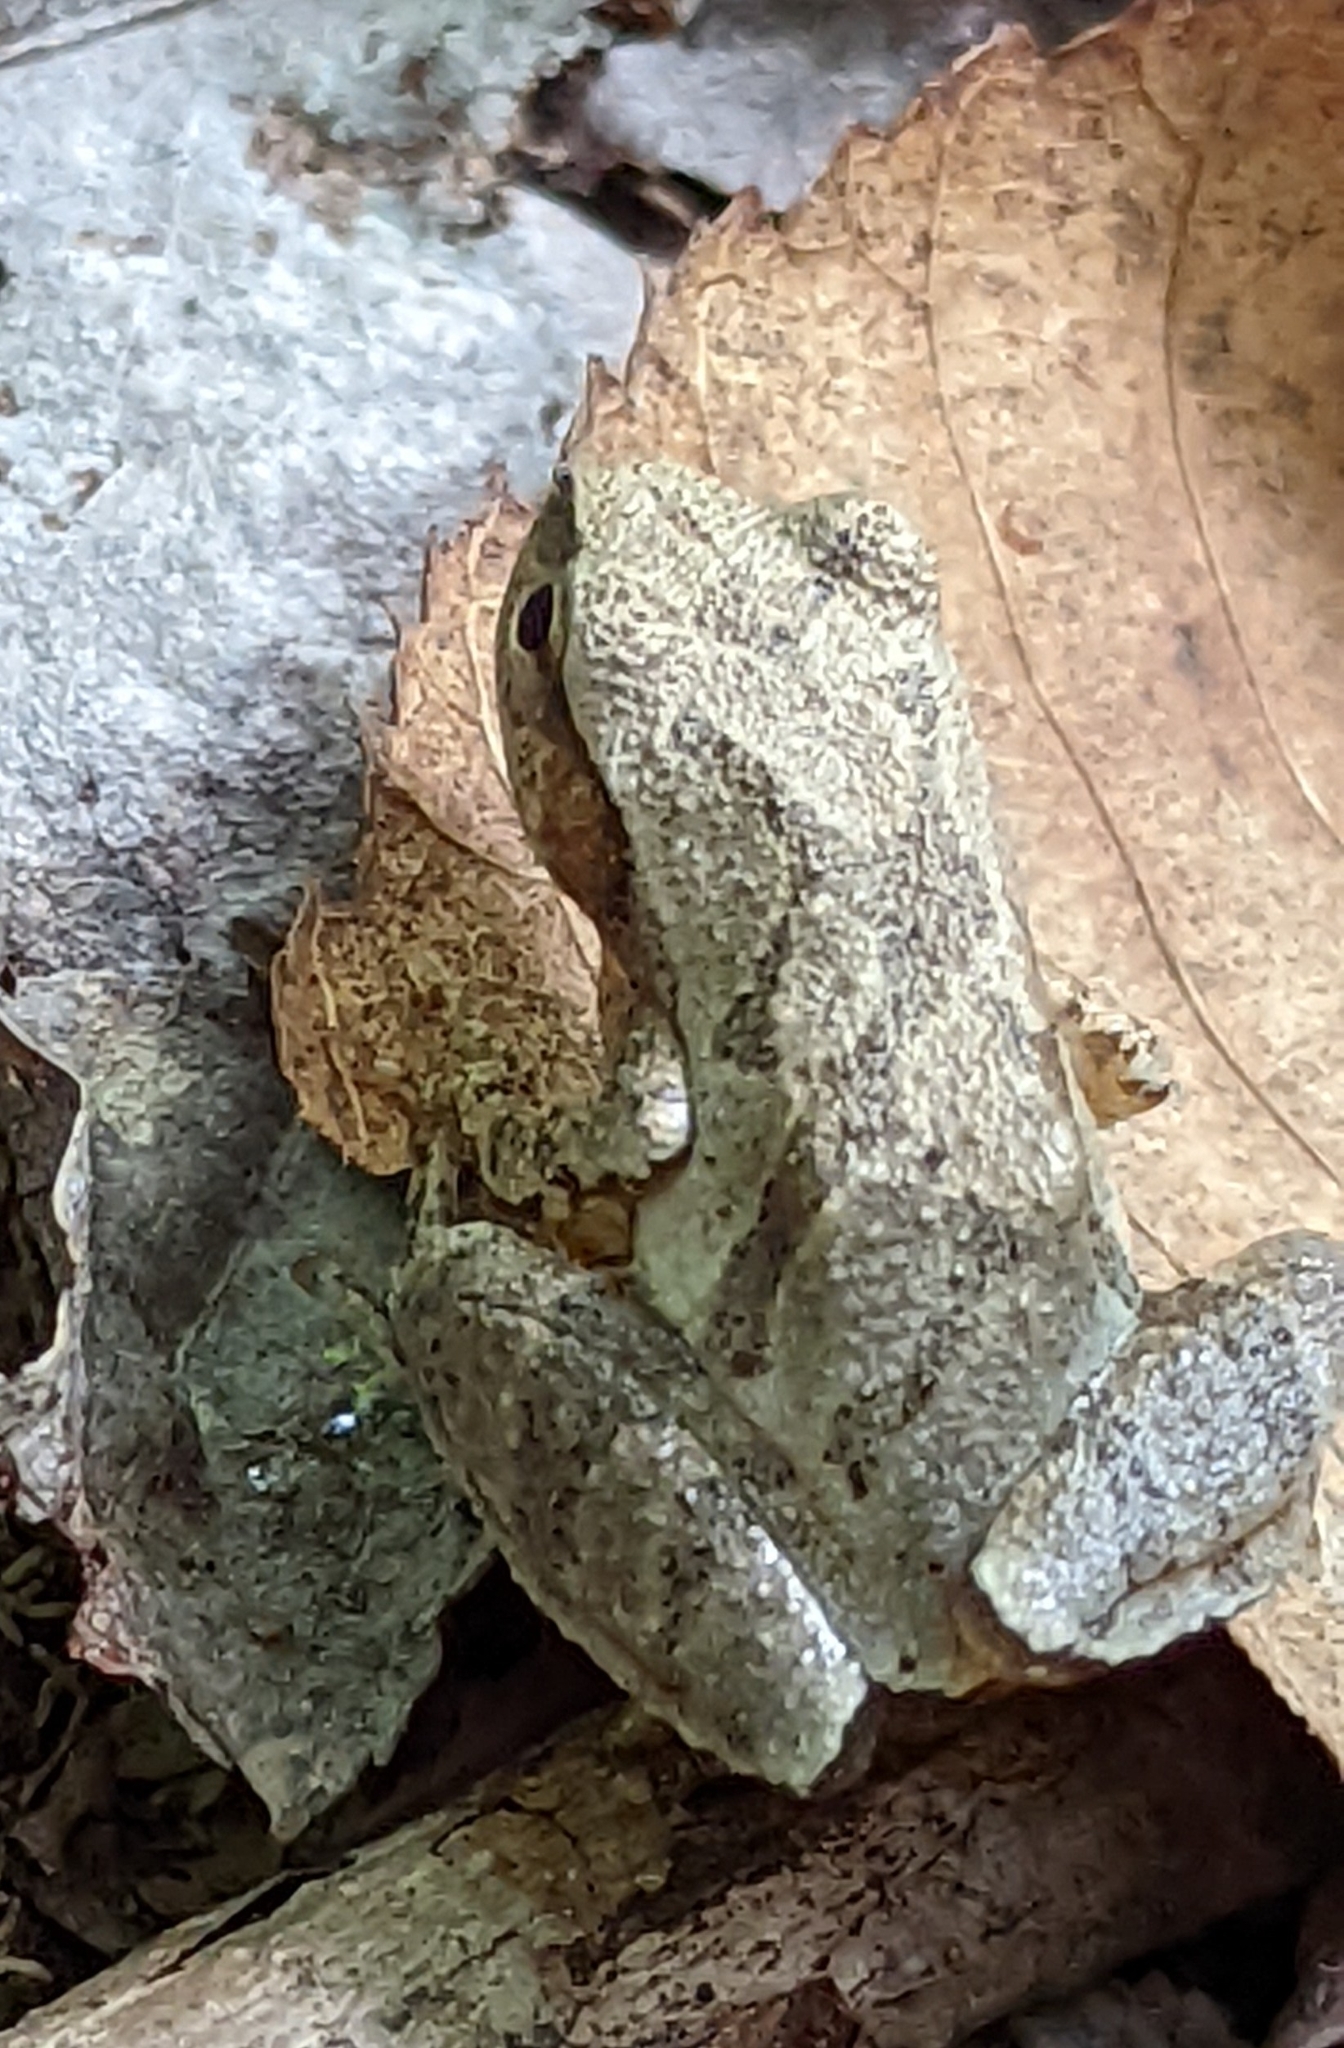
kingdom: Animalia
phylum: Chordata
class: Amphibia
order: Anura
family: Hylidae
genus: Pseudacris
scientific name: Pseudacris crucifer
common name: Spring peeper
